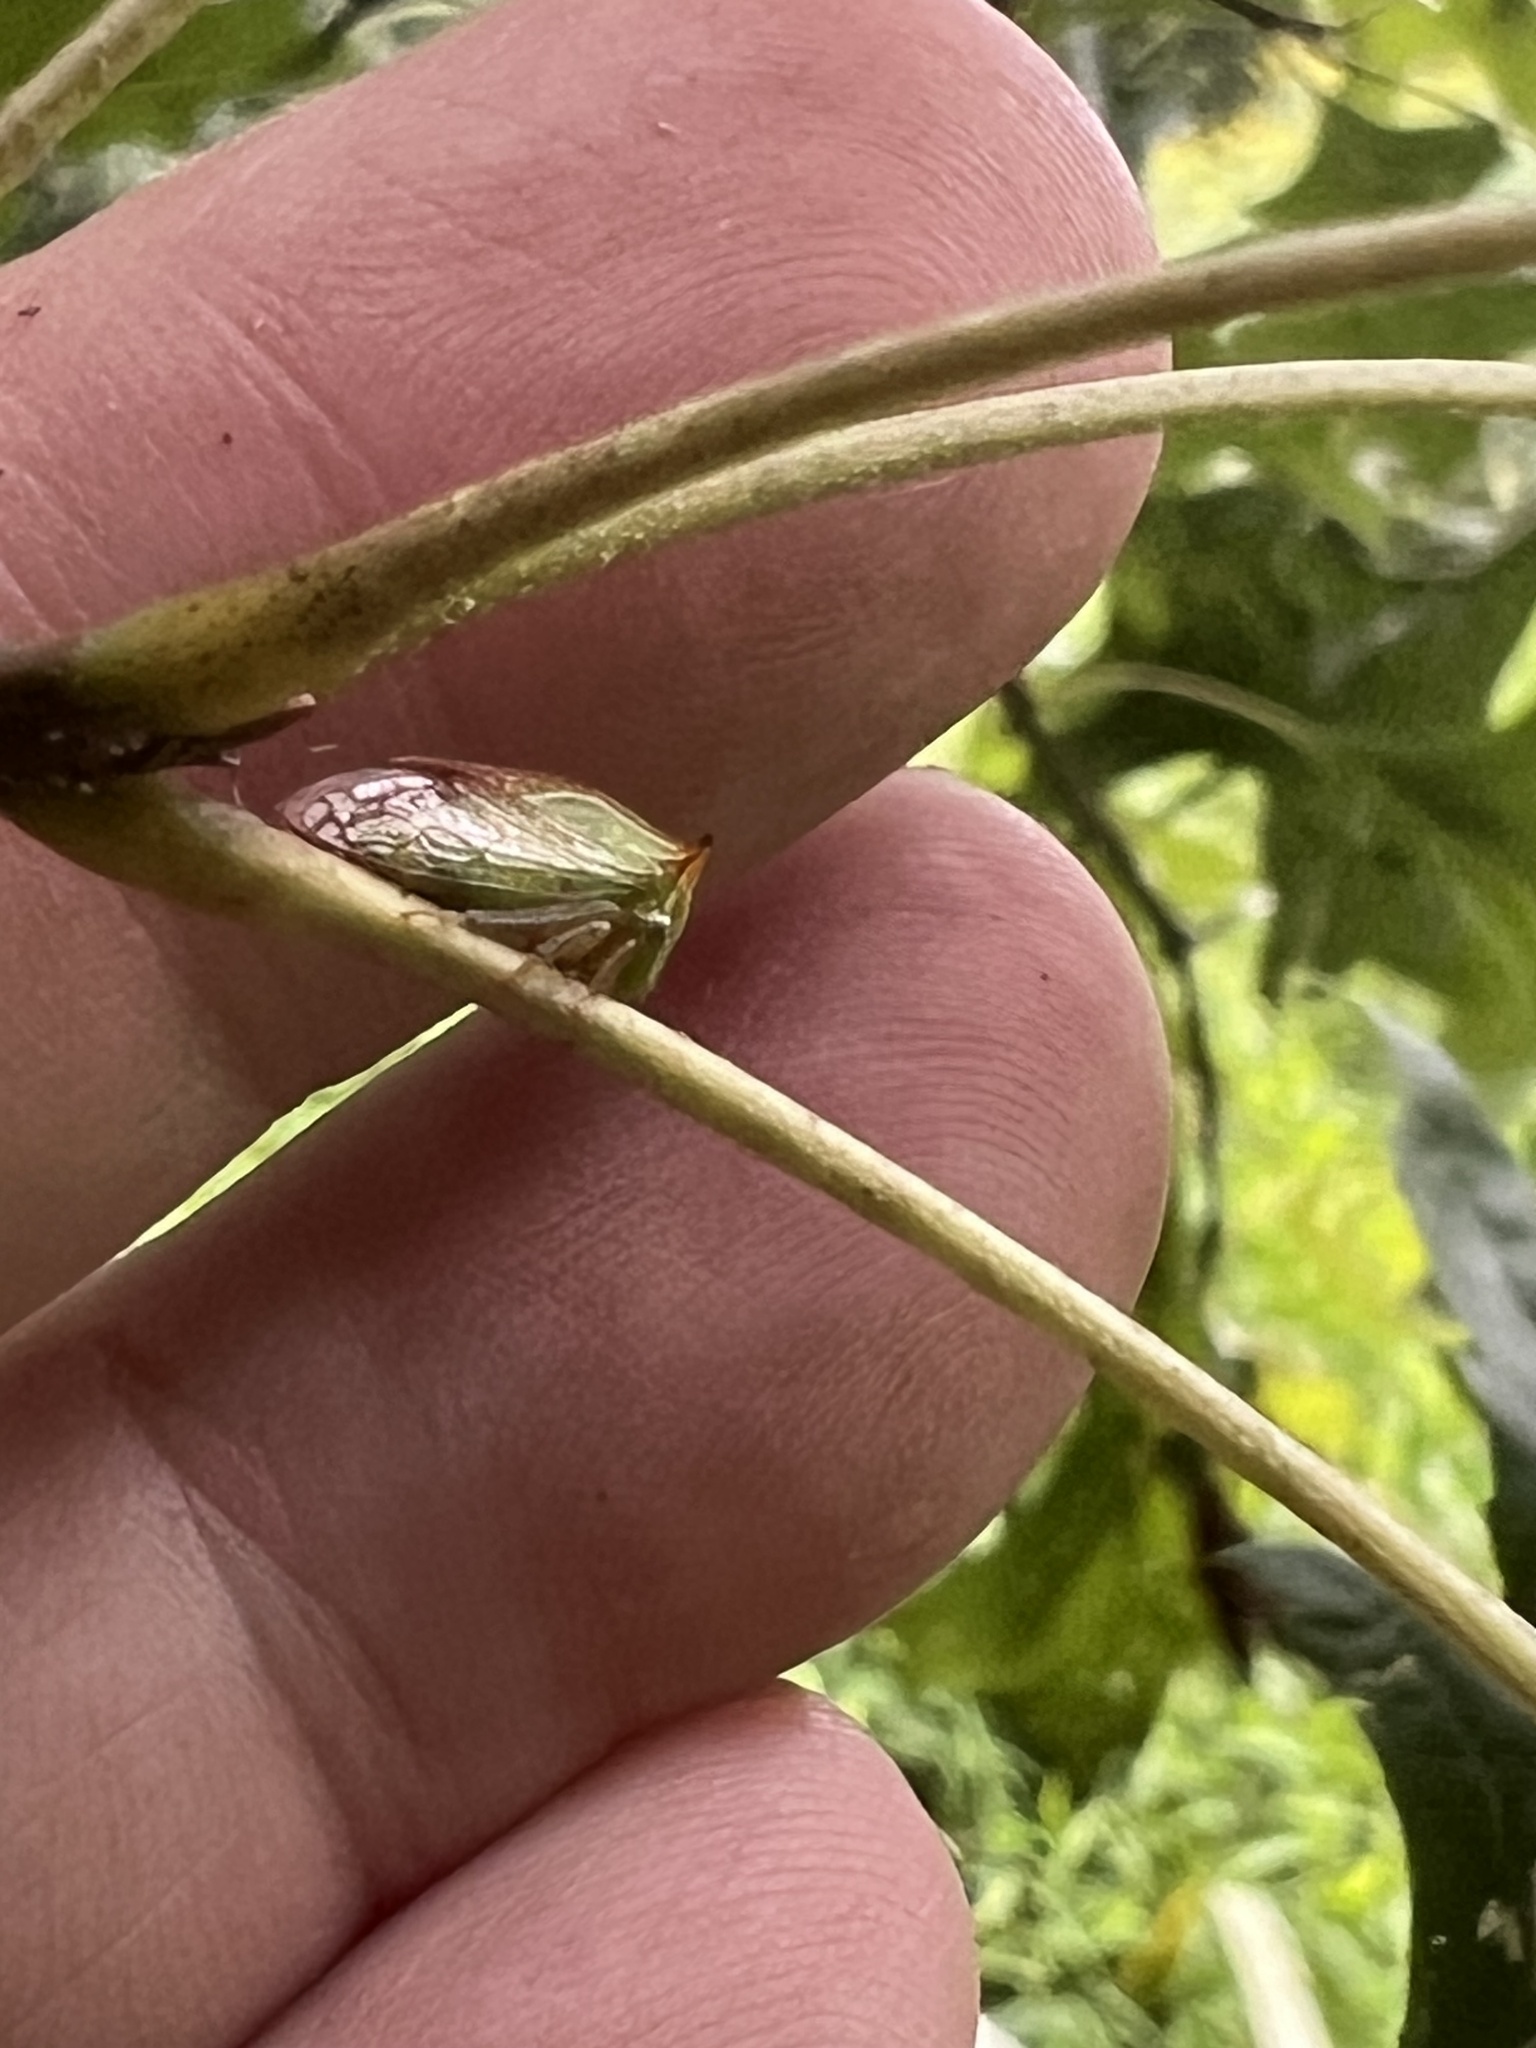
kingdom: Animalia
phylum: Arthropoda
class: Insecta
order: Hemiptera
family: Membracidae
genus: Stictolobus
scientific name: Stictolobus borealis
